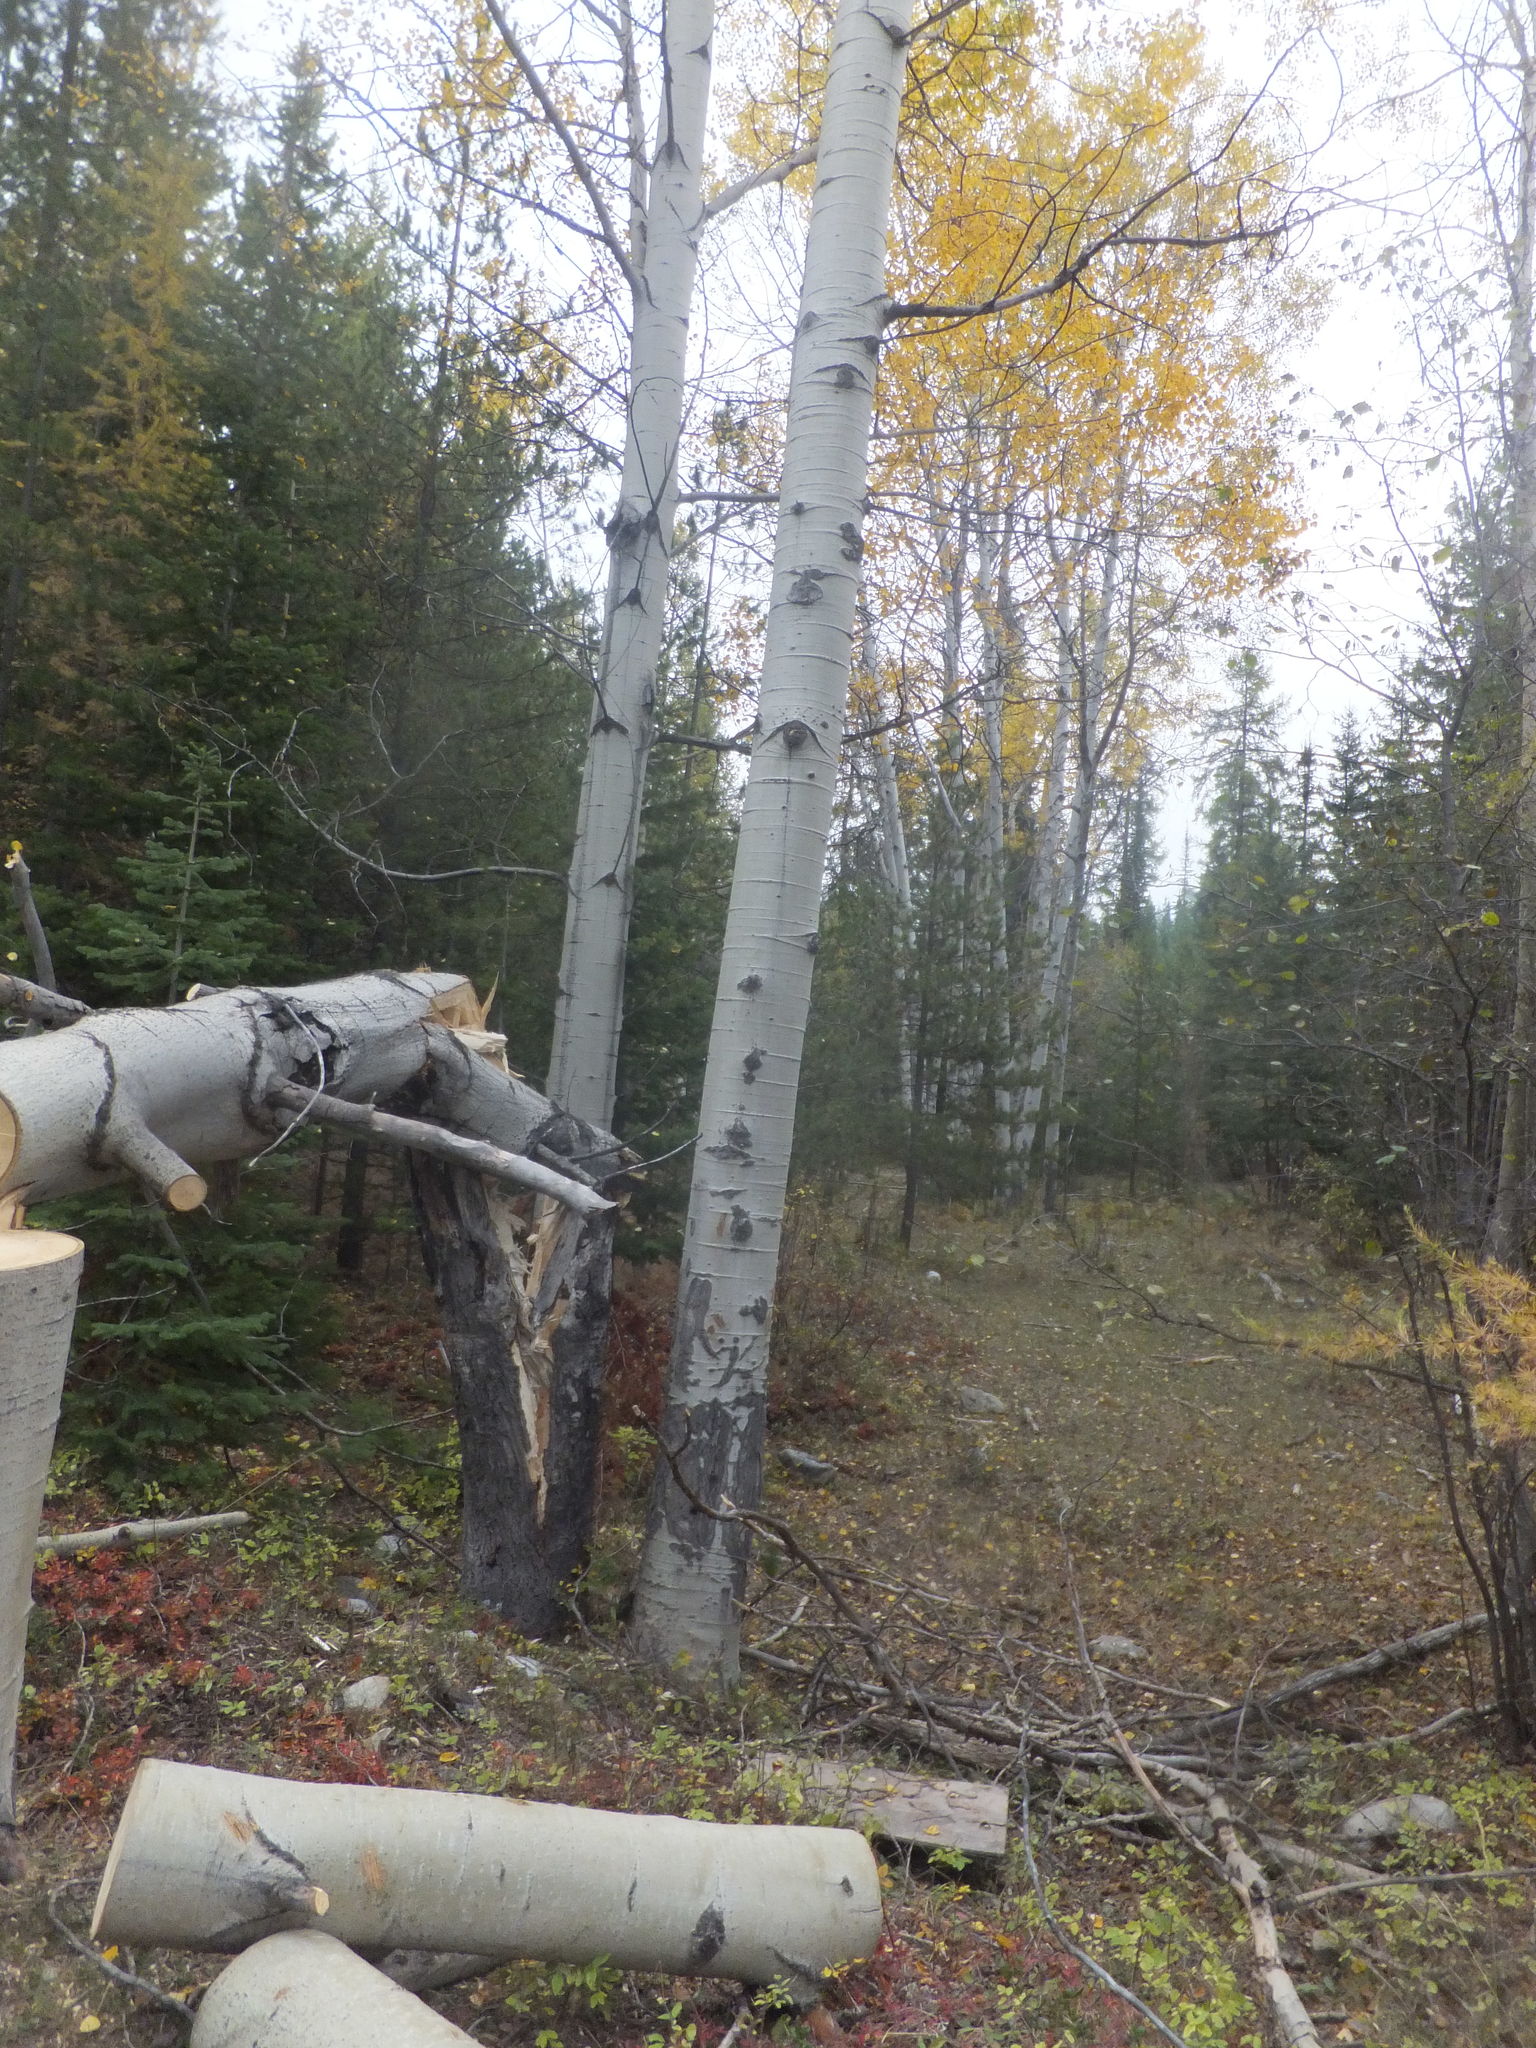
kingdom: Plantae
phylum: Tracheophyta
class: Magnoliopsida
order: Malpighiales
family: Salicaceae
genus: Populus
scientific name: Populus tremuloides
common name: Quaking aspen
